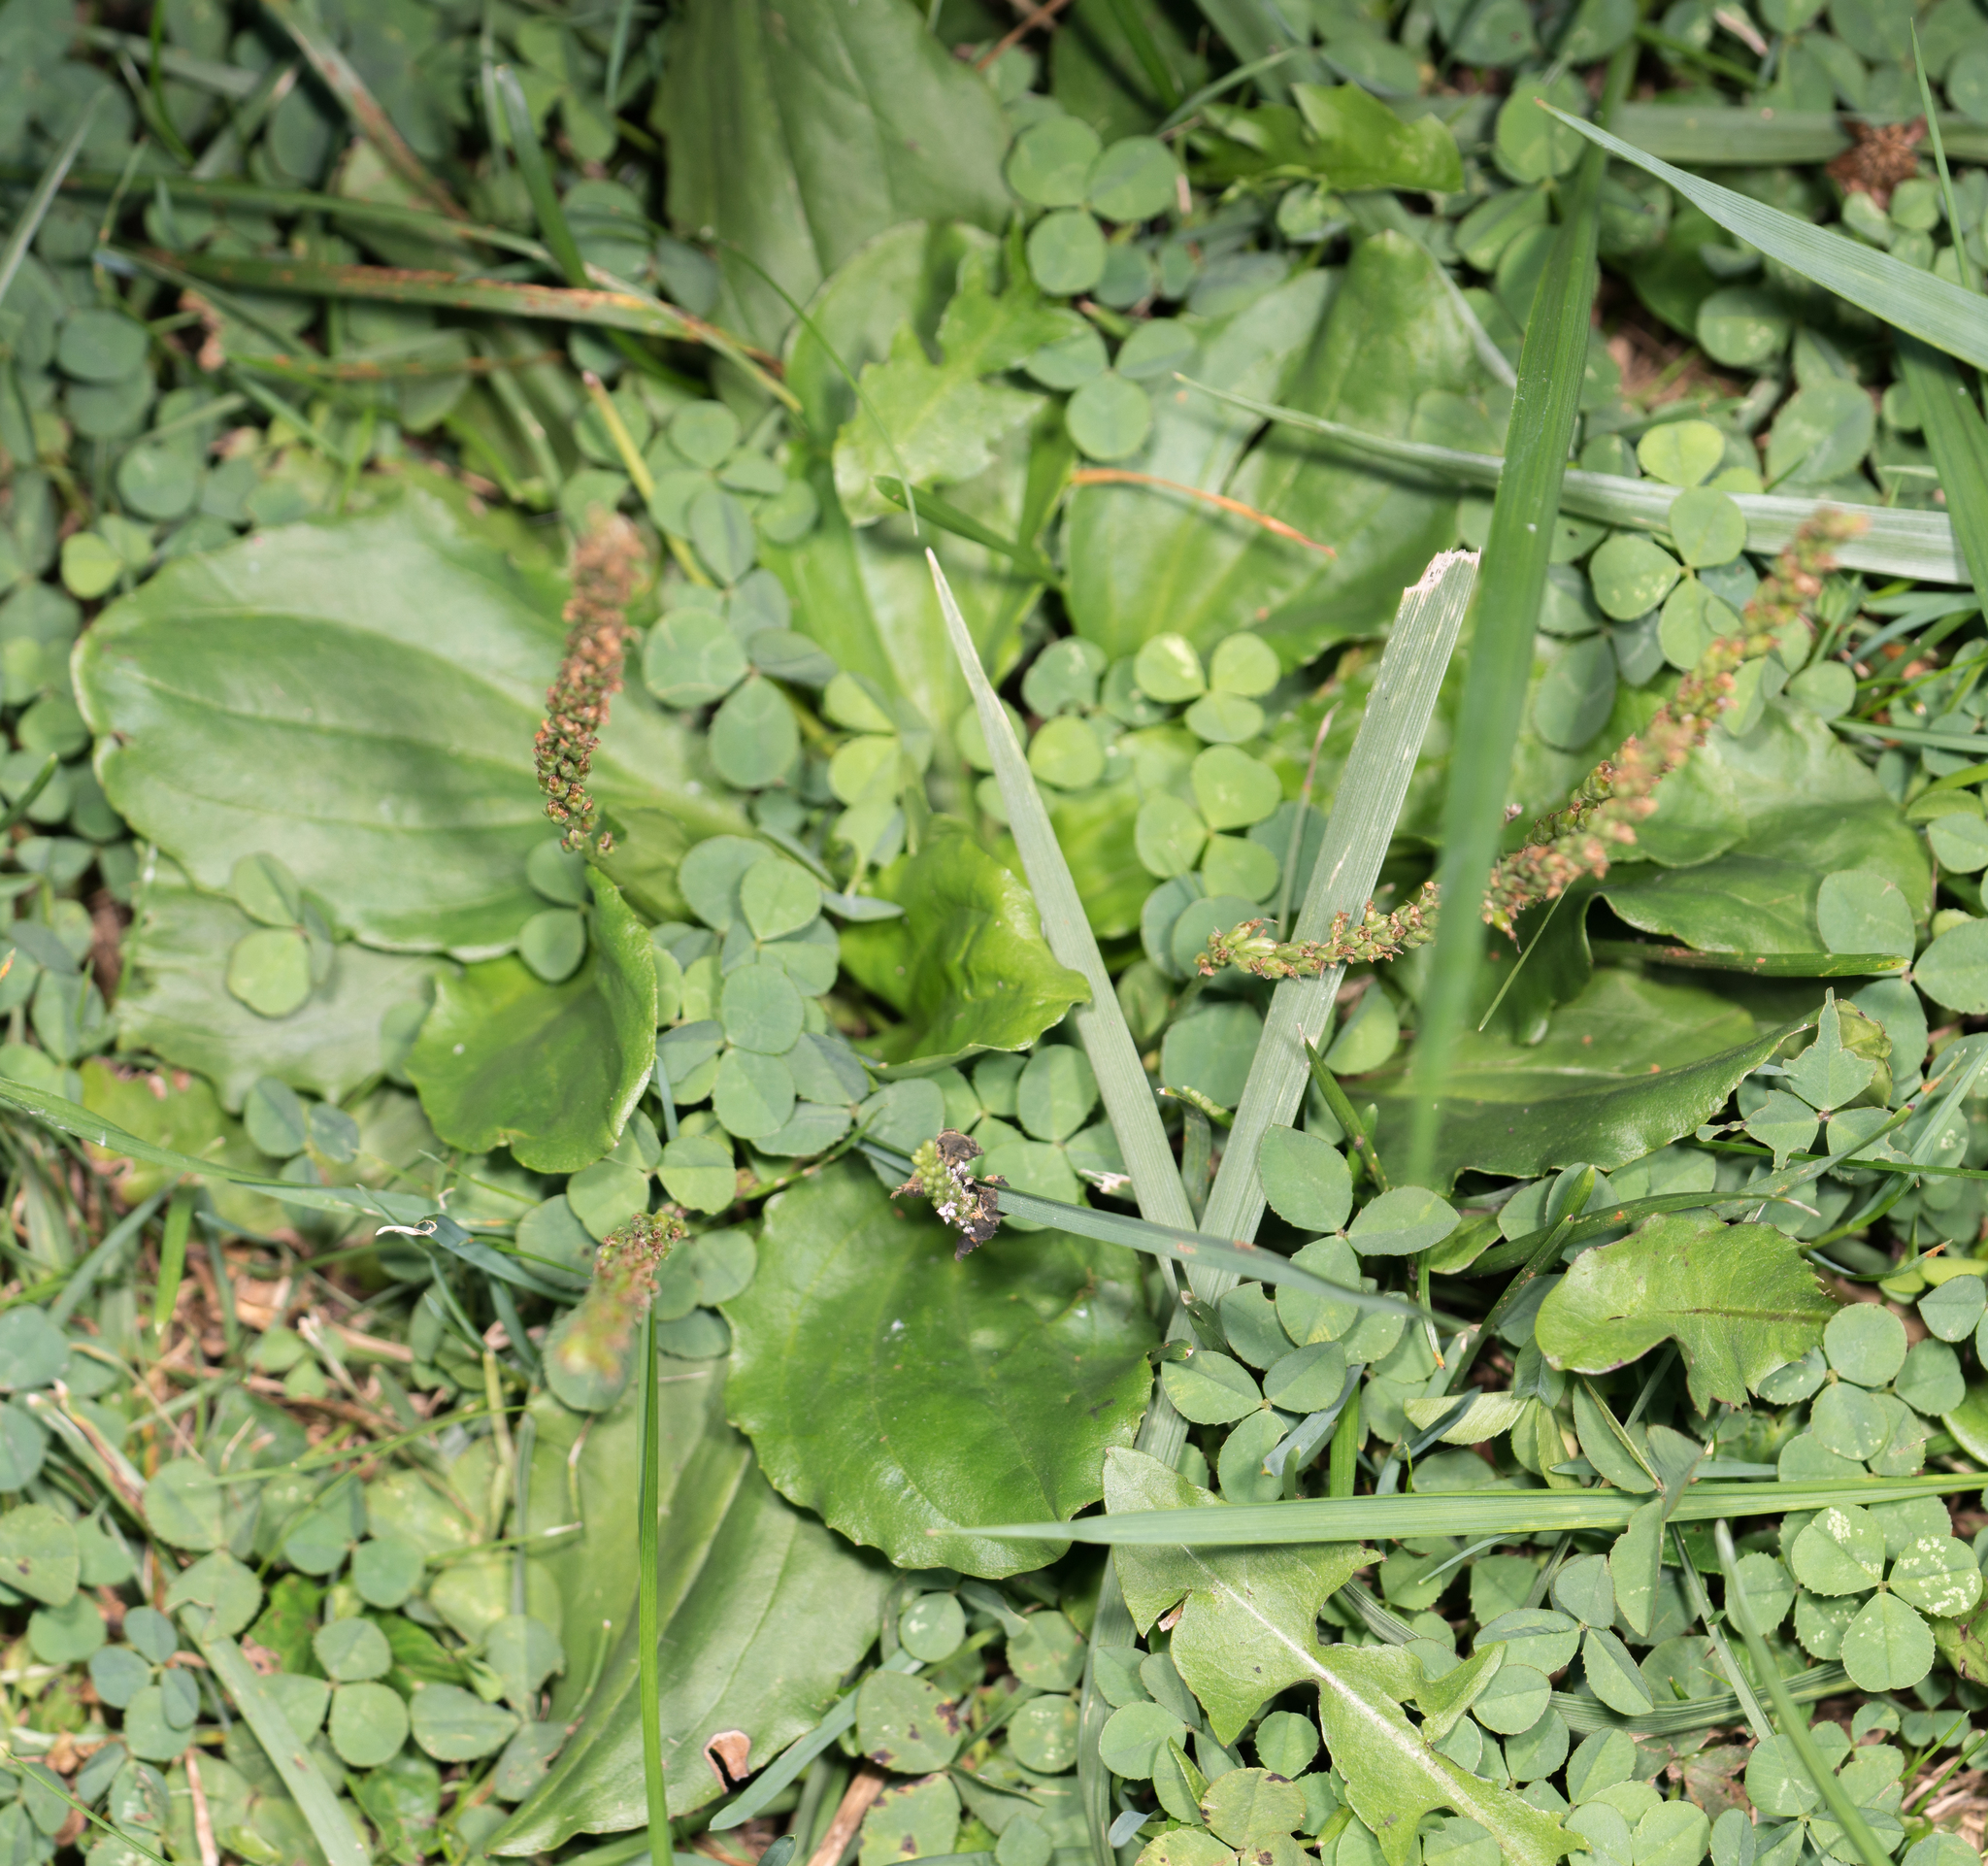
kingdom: Plantae
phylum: Tracheophyta
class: Magnoliopsida
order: Lamiales
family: Plantaginaceae
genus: Plantago
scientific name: Plantago major
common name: Common plantain
